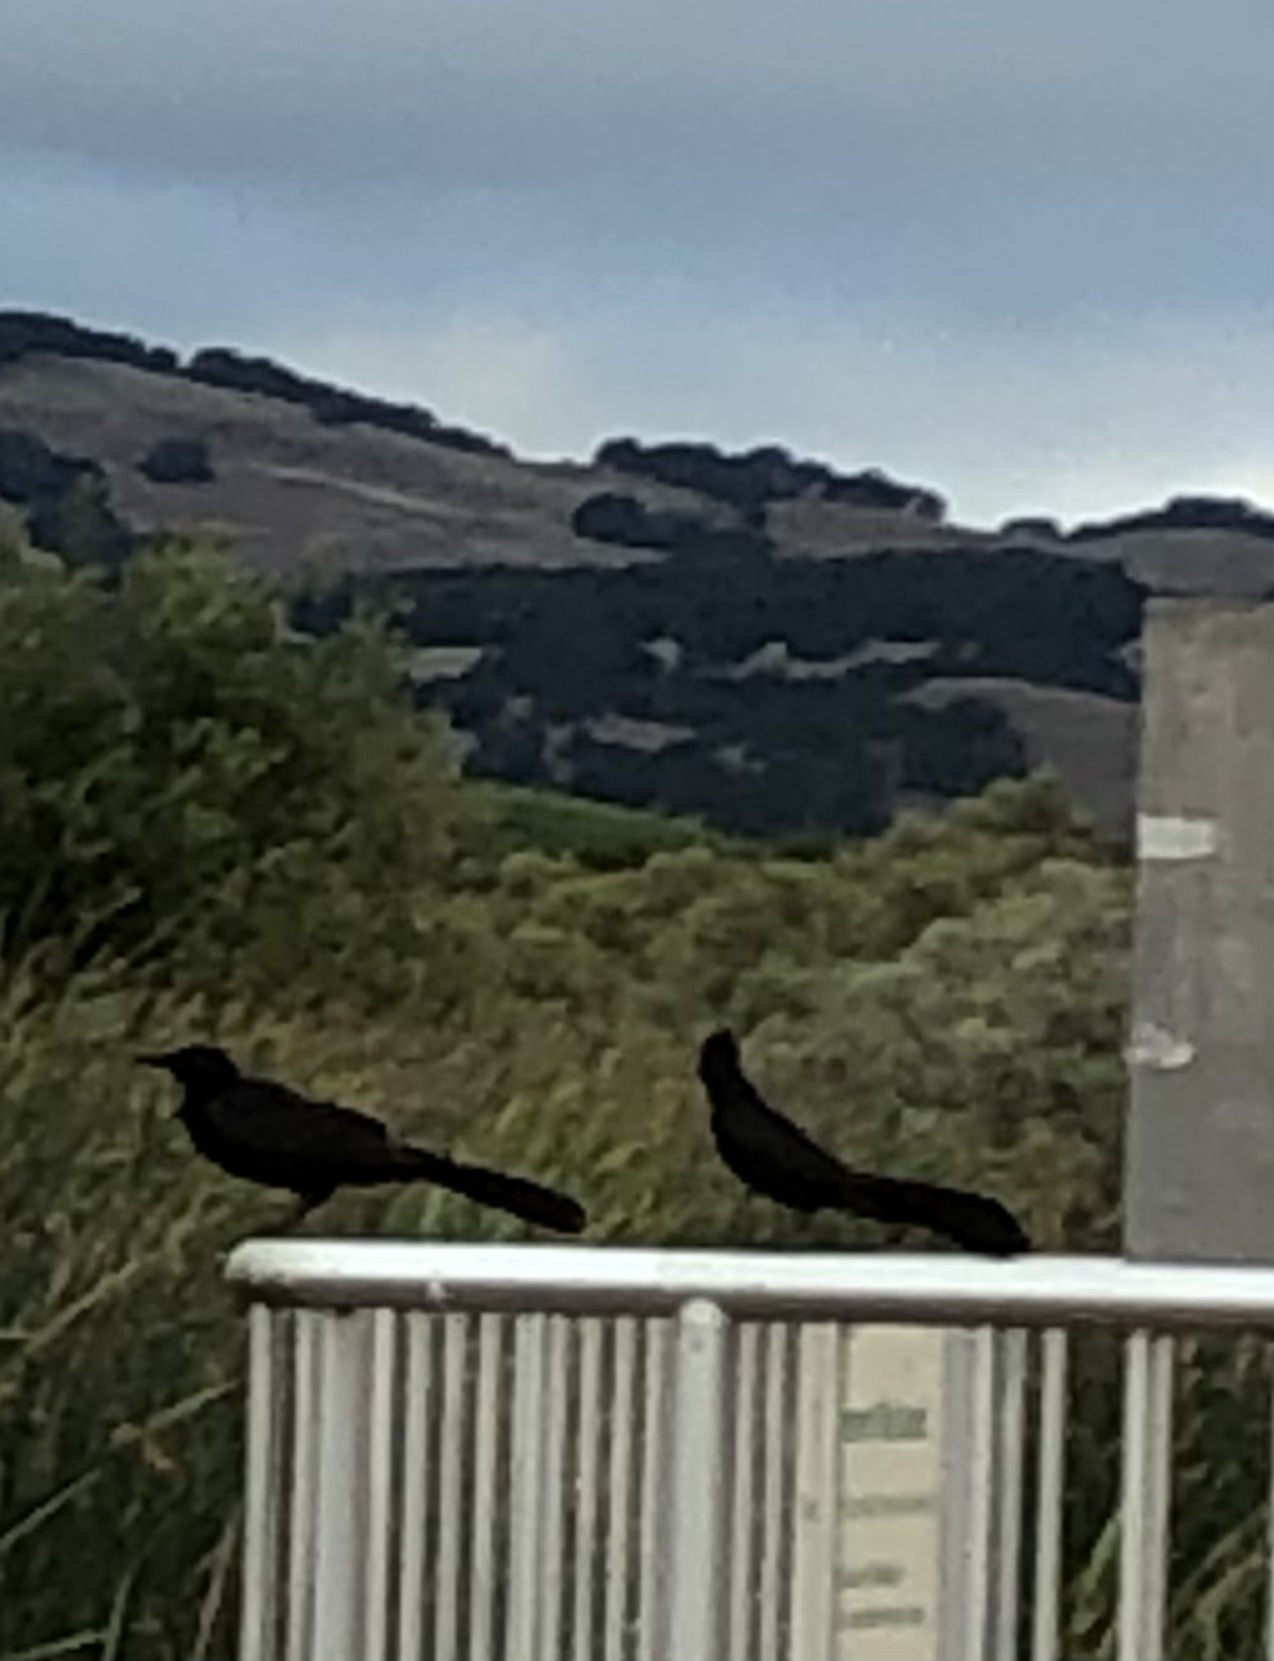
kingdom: Animalia
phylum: Chordata
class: Aves
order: Passeriformes
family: Icteridae
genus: Quiscalus
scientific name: Quiscalus mexicanus
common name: Great-tailed grackle
